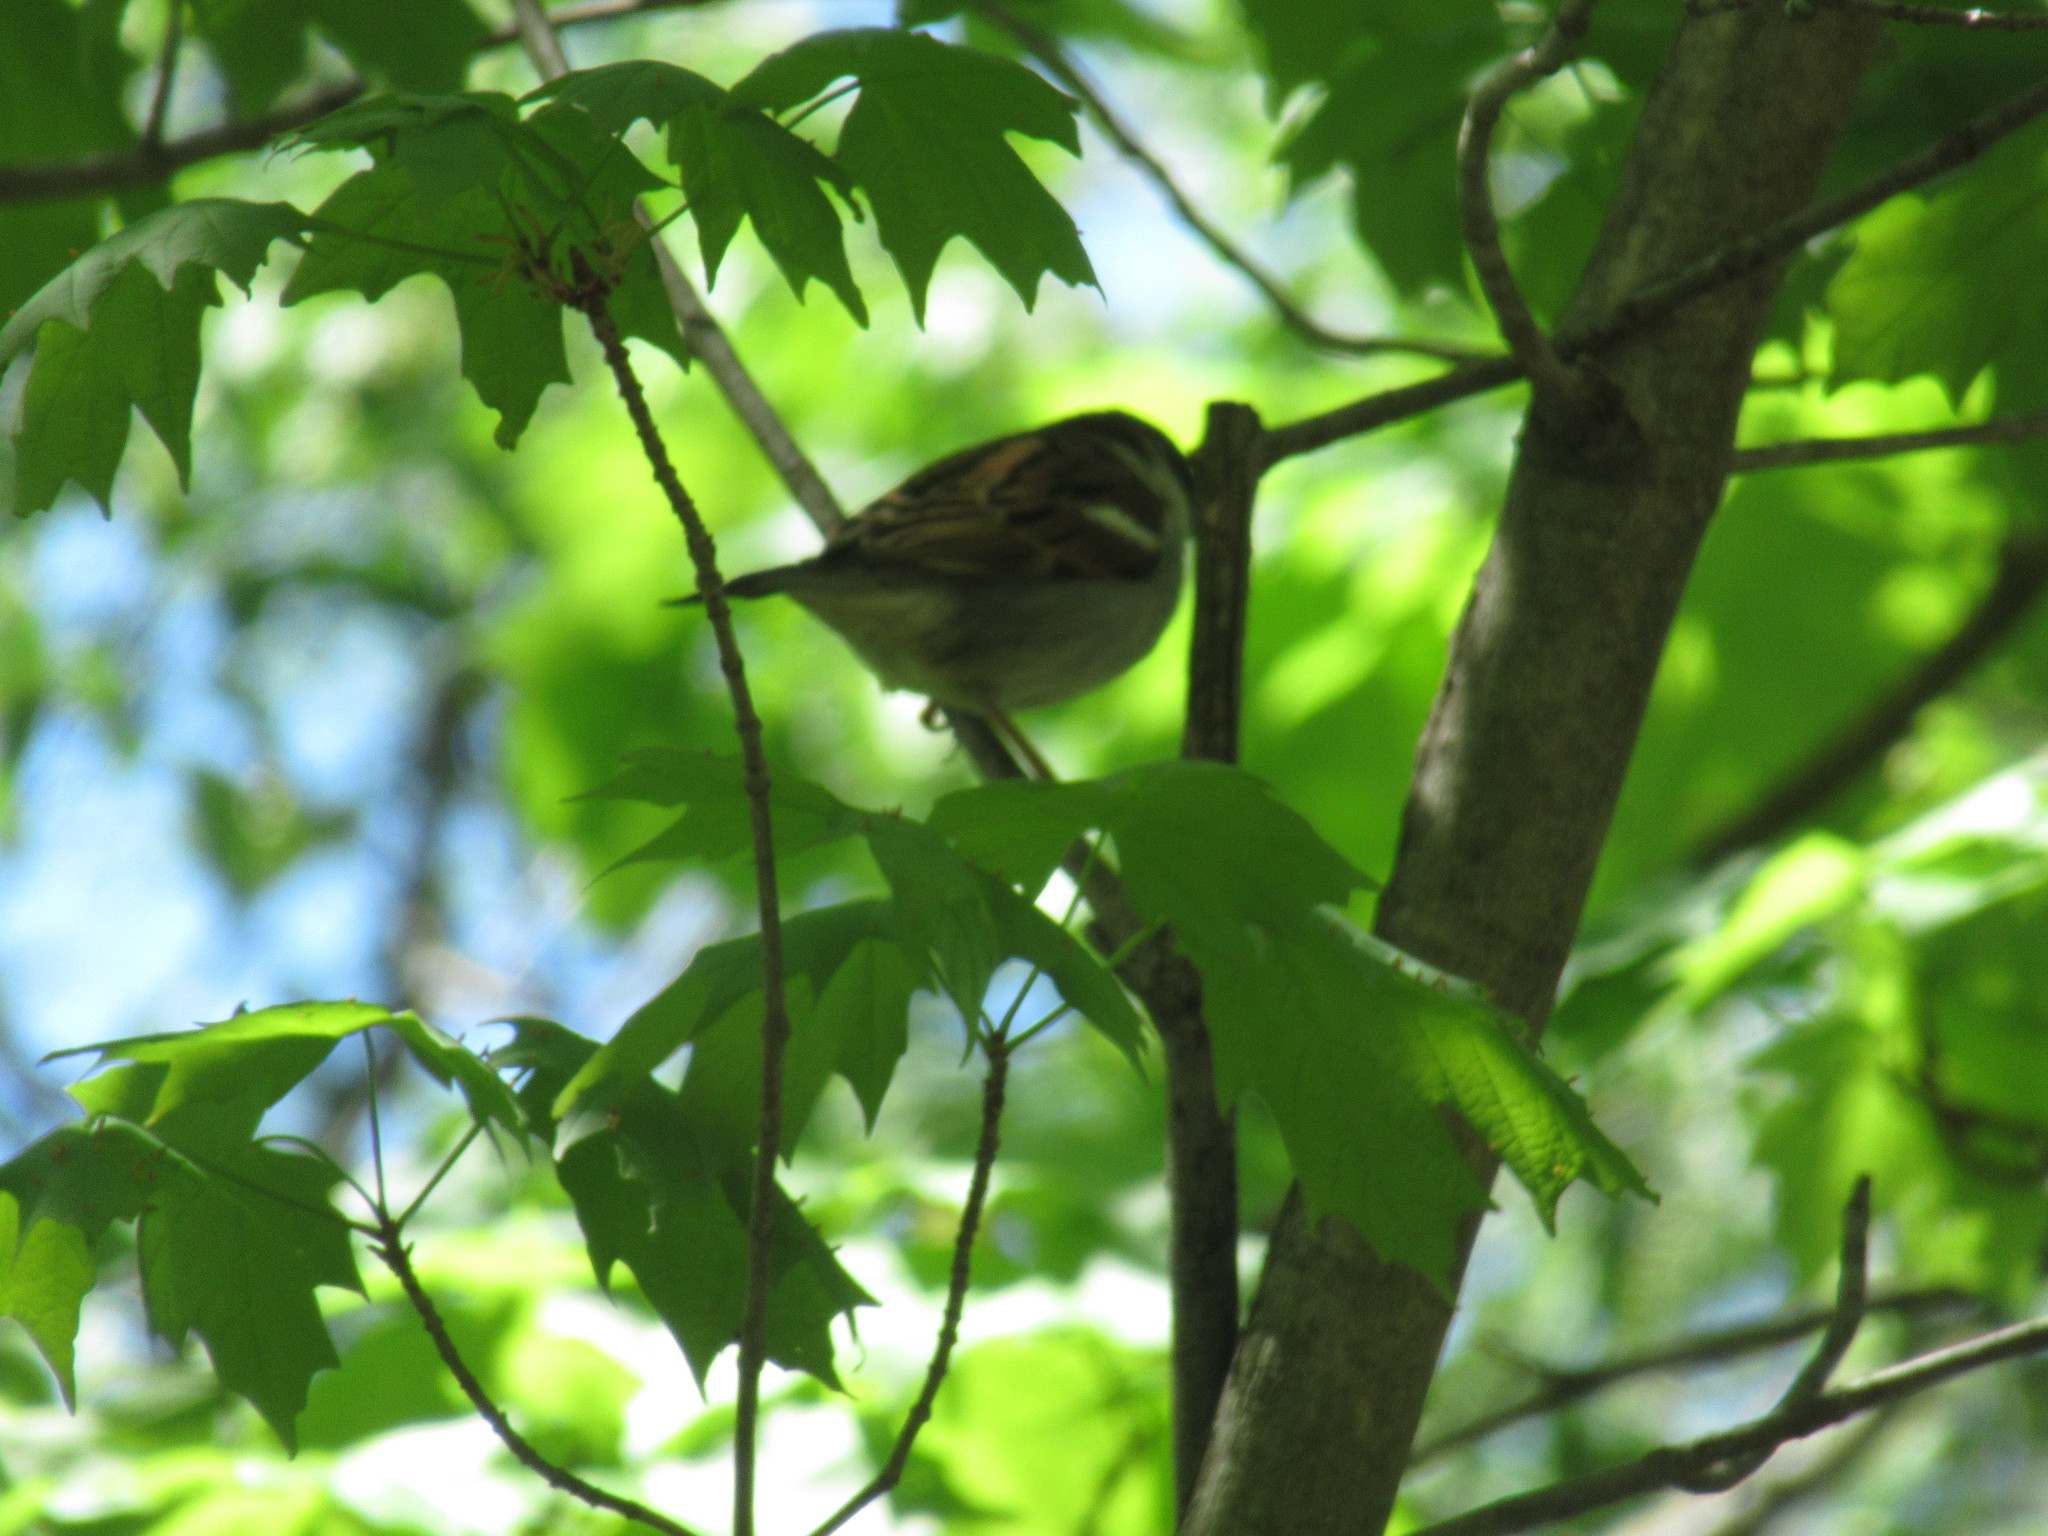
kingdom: Animalia
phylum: Chordata
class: Aves
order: Passeriformes
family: Passeridae
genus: Passer
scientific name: Passer domesticus
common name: House sparrow
